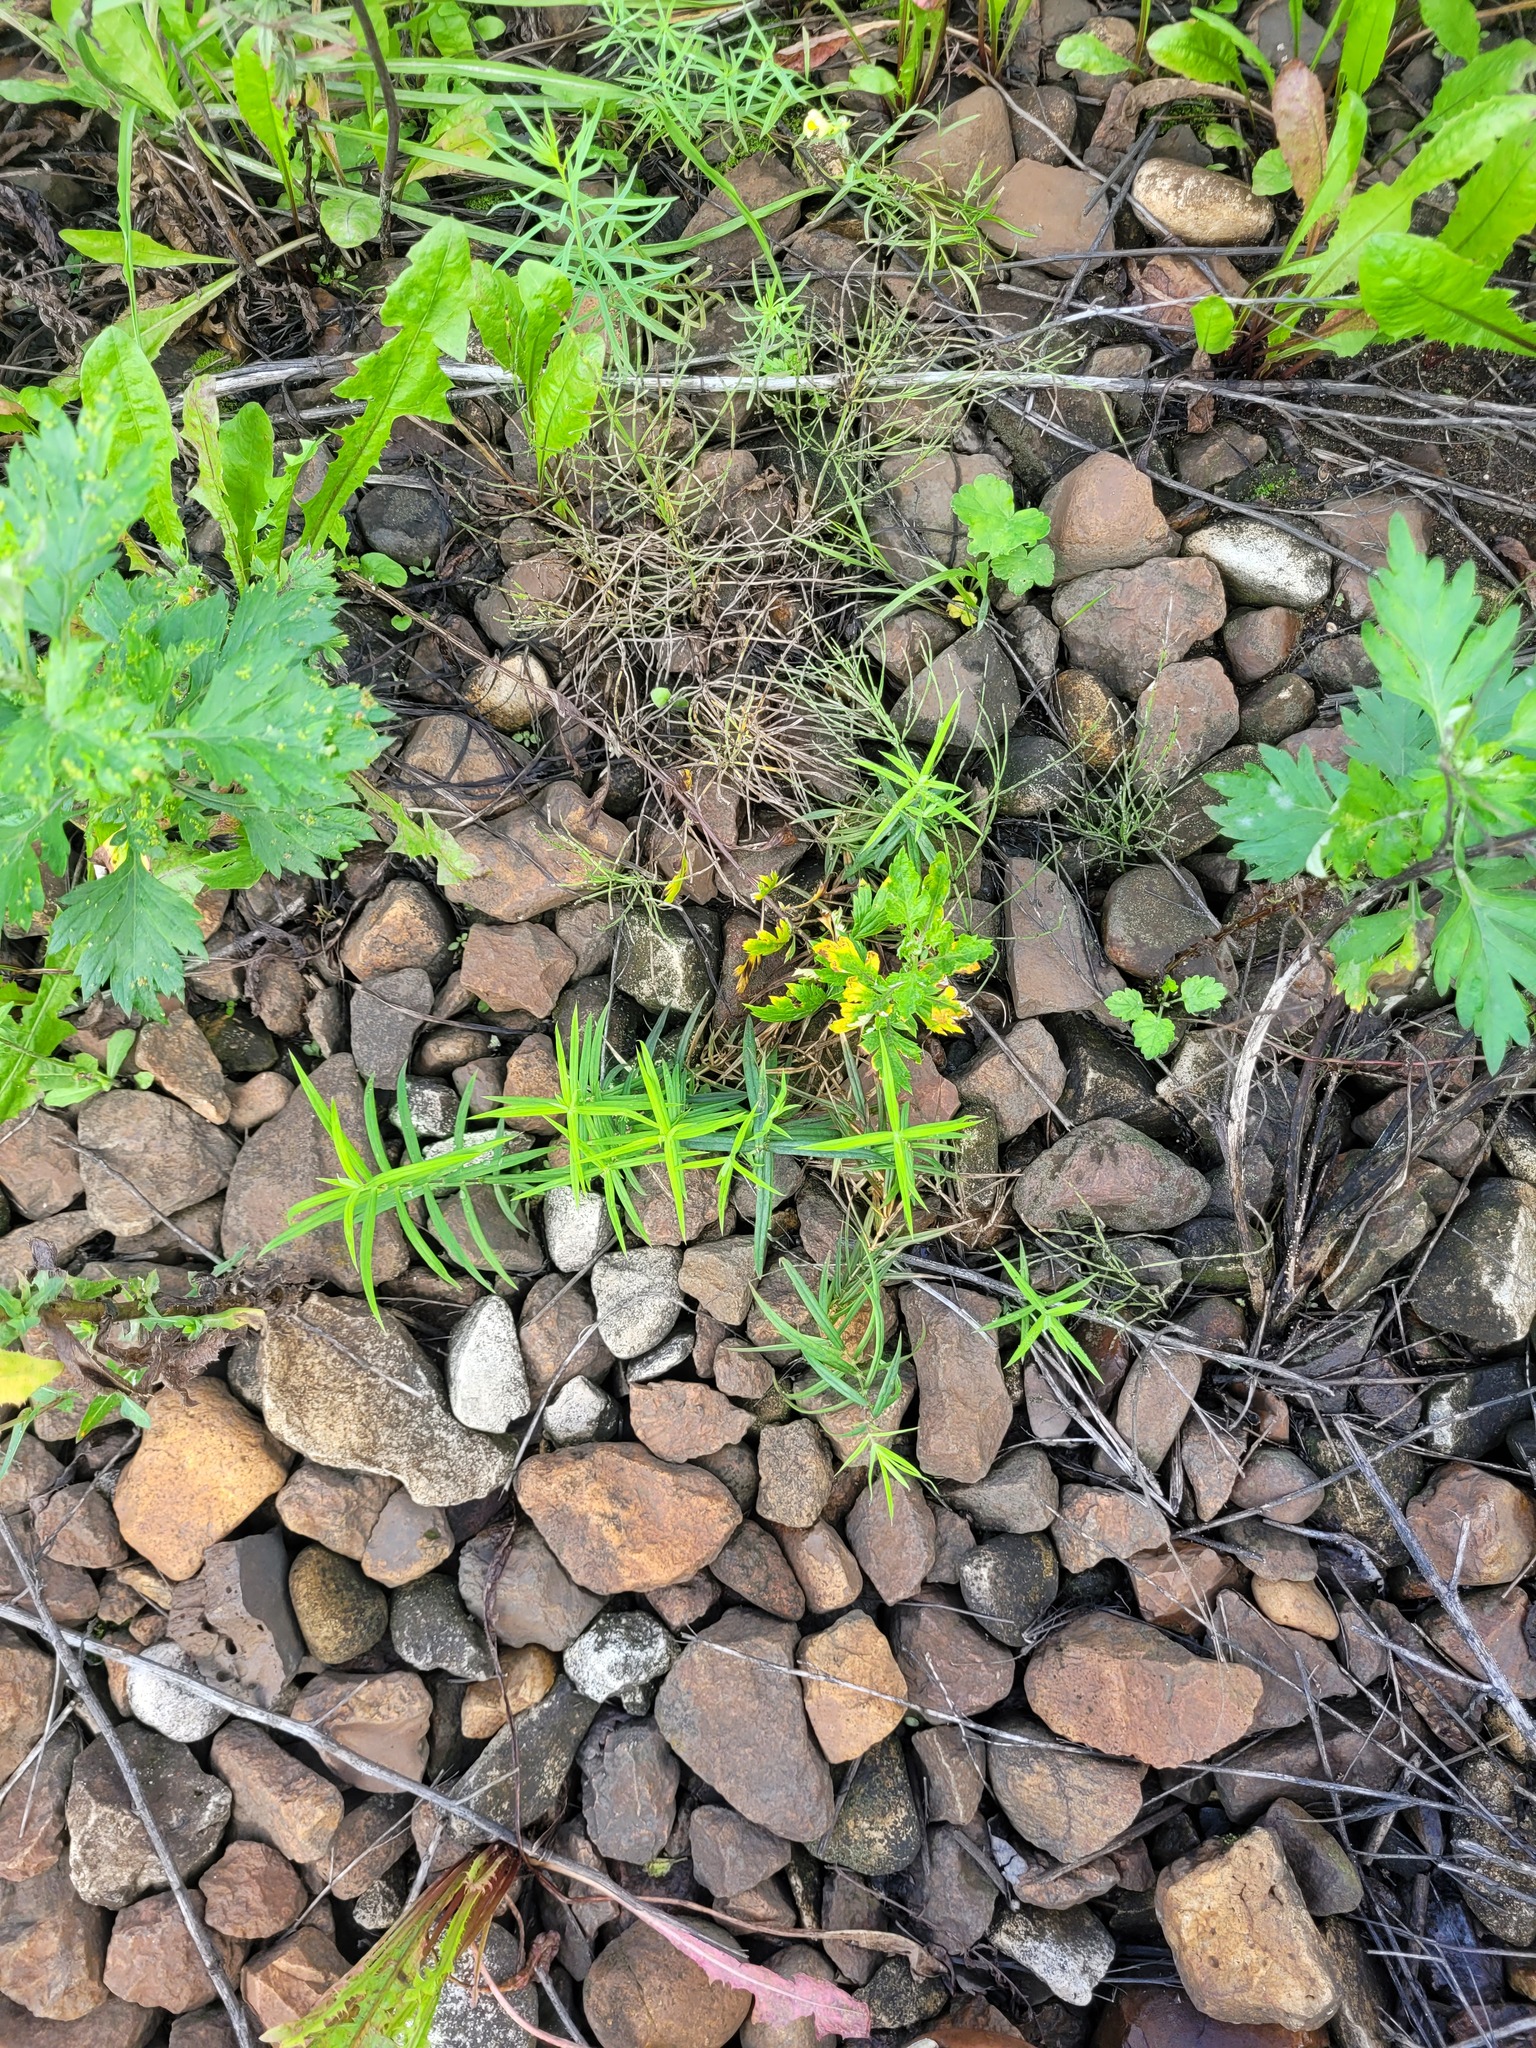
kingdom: Plantae
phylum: Tracheophyta
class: Magnoliopsida
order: Caryophyllales
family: Caryophyllaceae
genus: Rabelera
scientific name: Rabelera holostea
